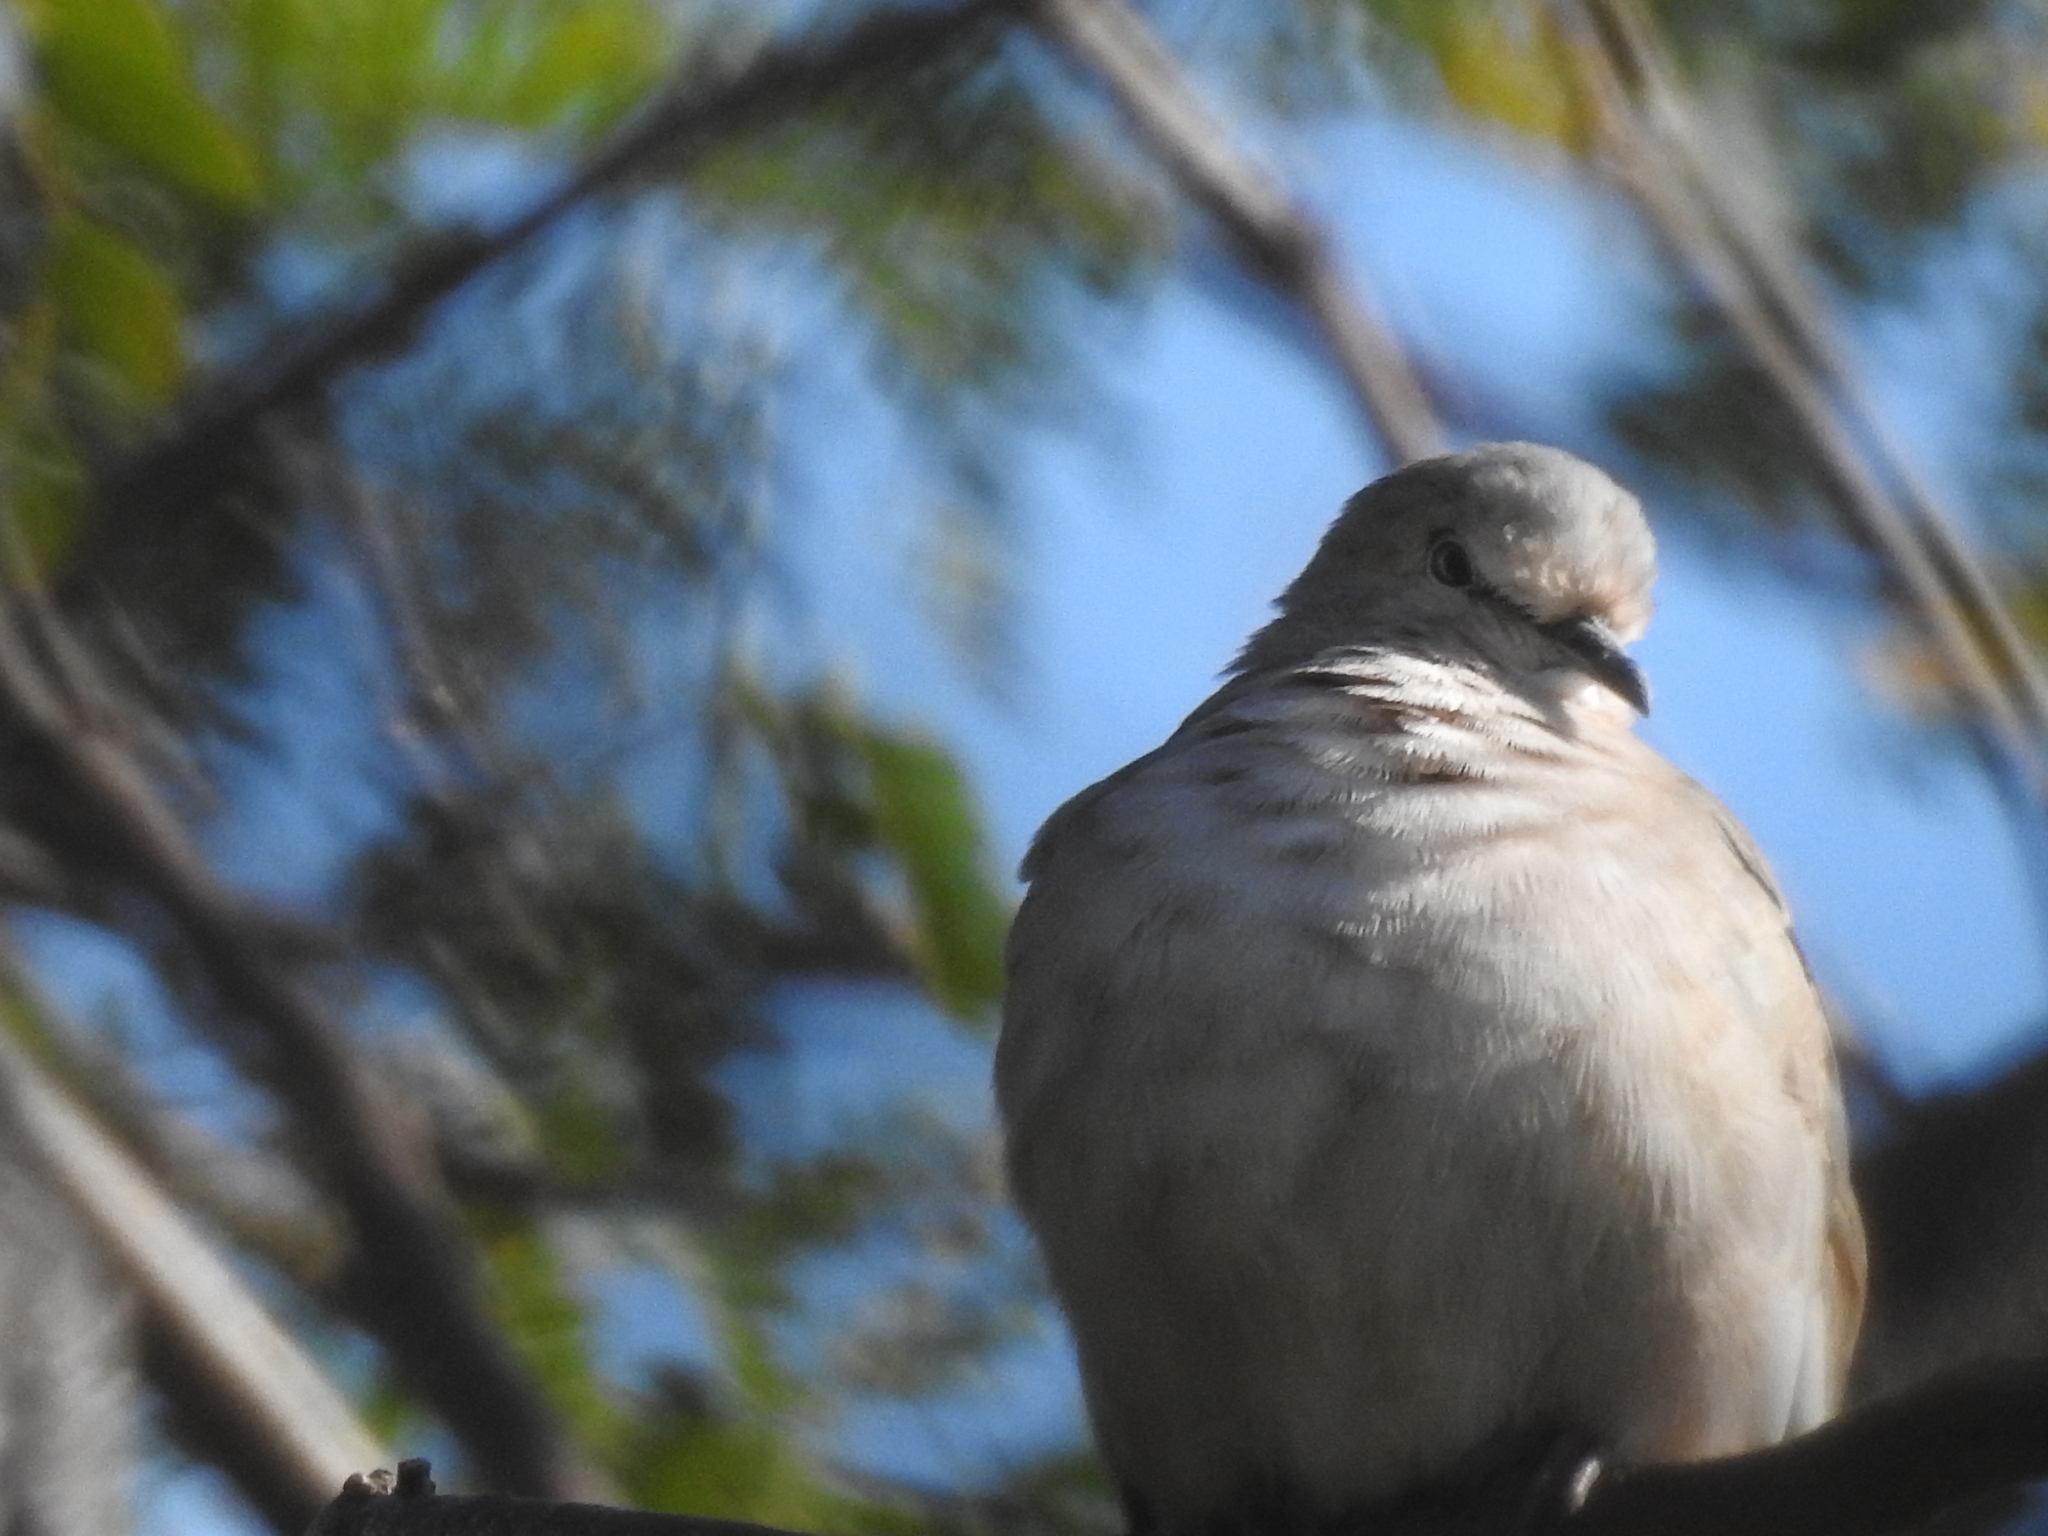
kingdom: Animalia
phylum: Chordata
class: Aves
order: Columbiformes
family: Columbidae
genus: Columbina
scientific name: Columbina picui
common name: Picui ground dove
